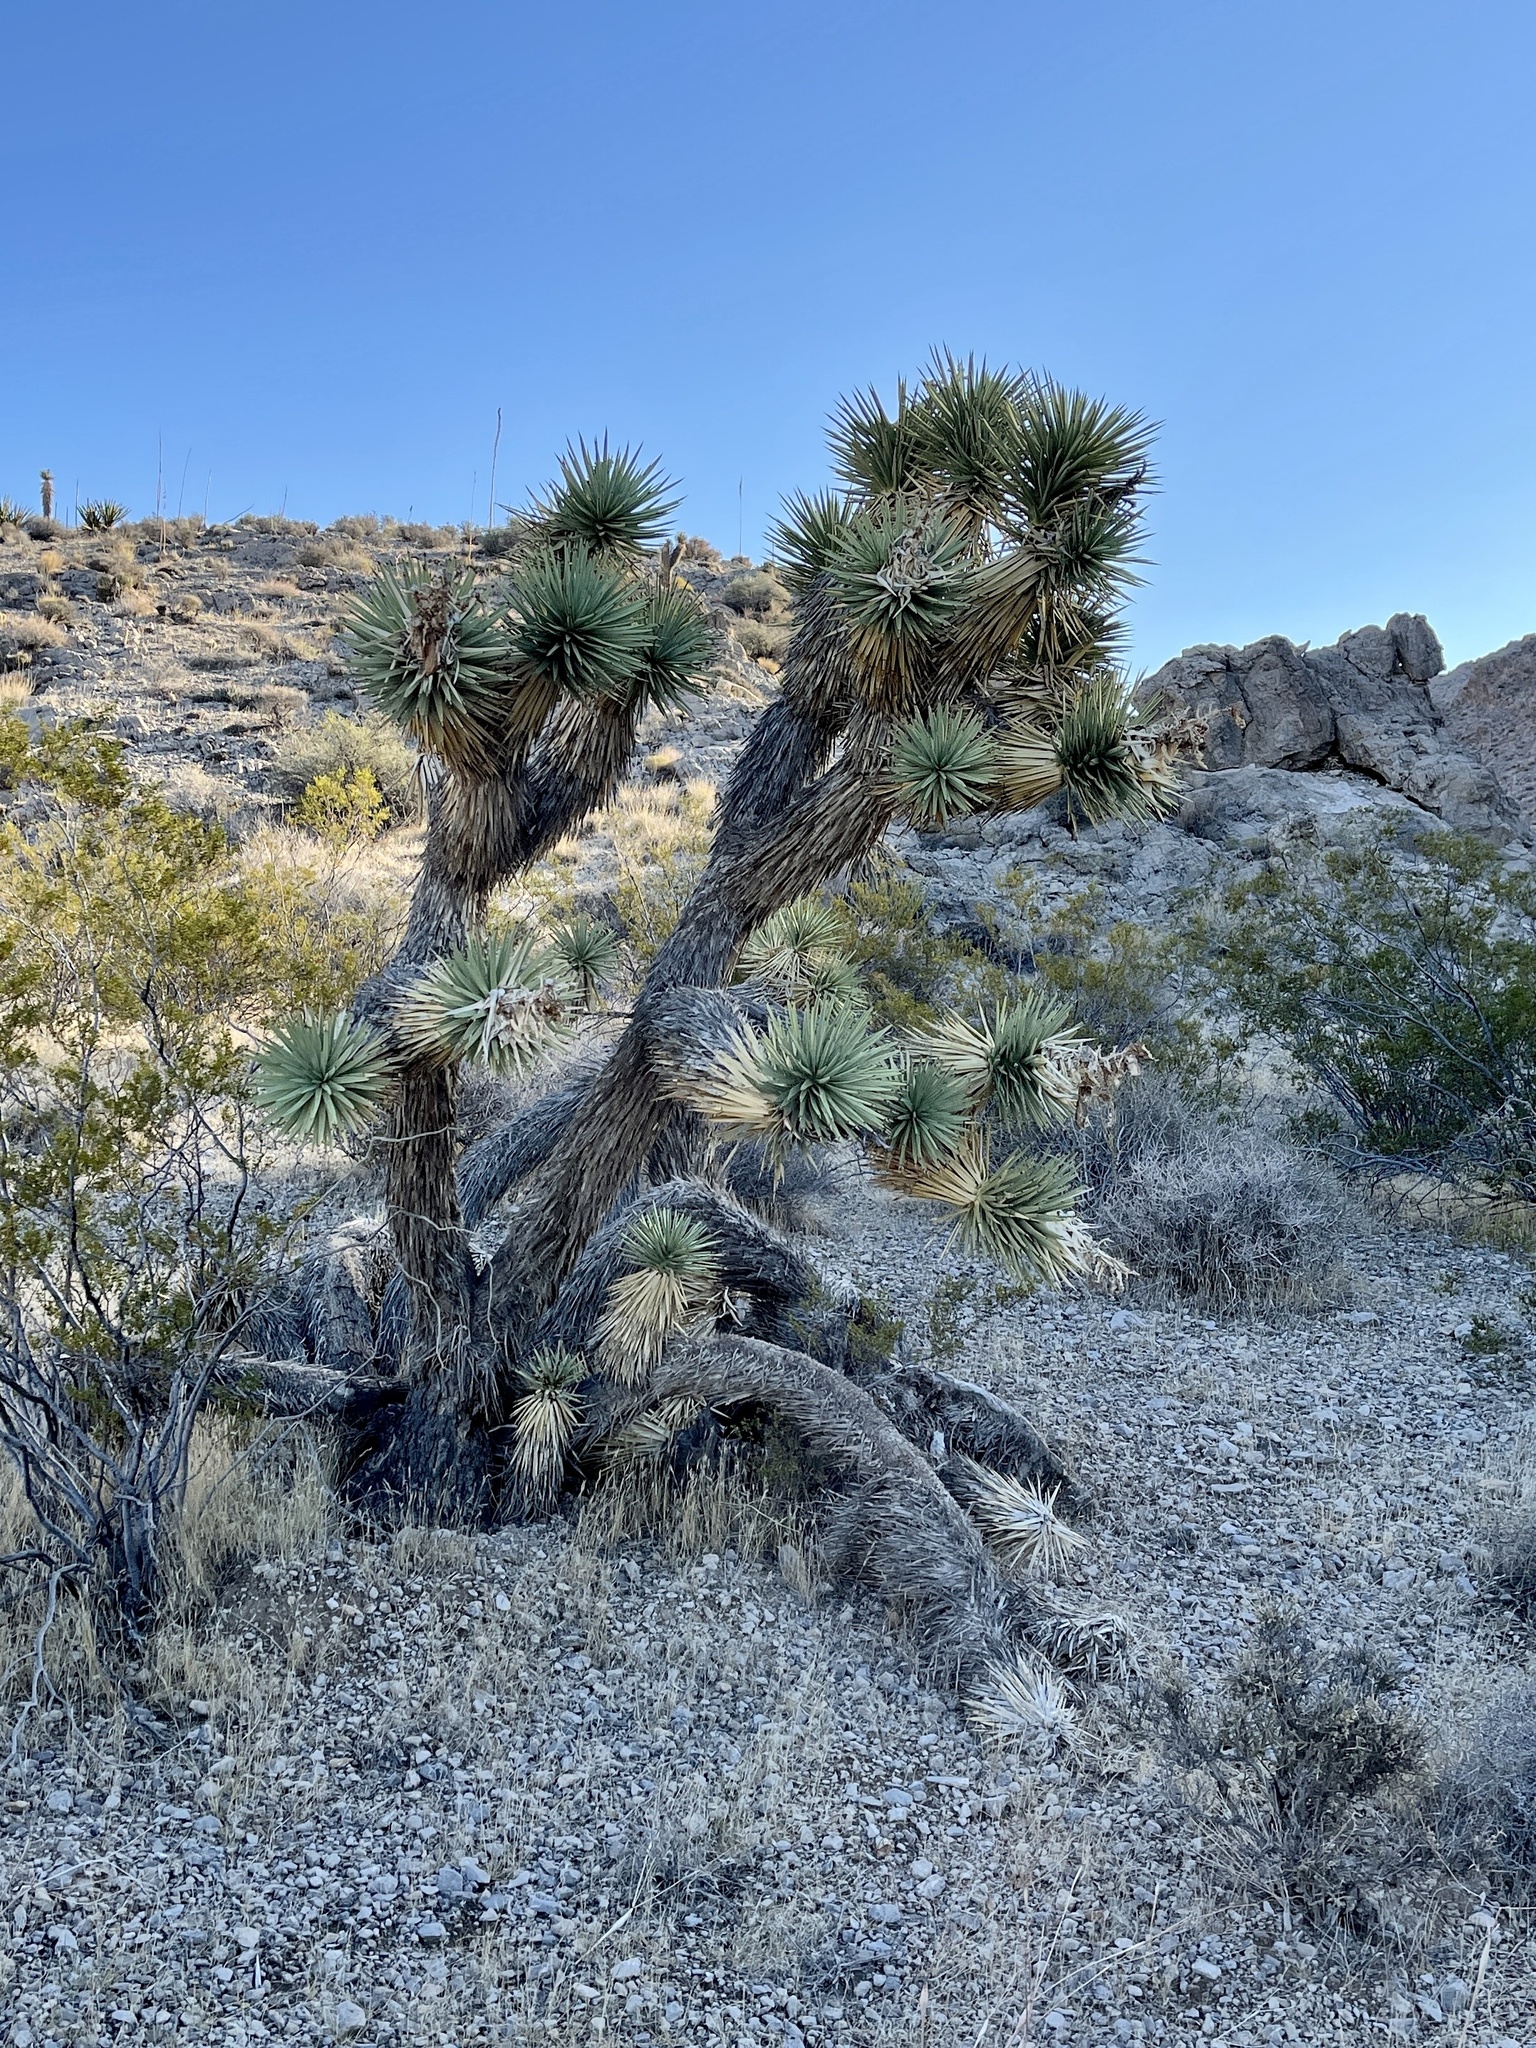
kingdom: Plantae
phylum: Tracheophyta
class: Liliopsida
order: Asparagales
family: Asparagaceae
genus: Yucca
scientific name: Yucca brevifolia
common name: Joshua tree
